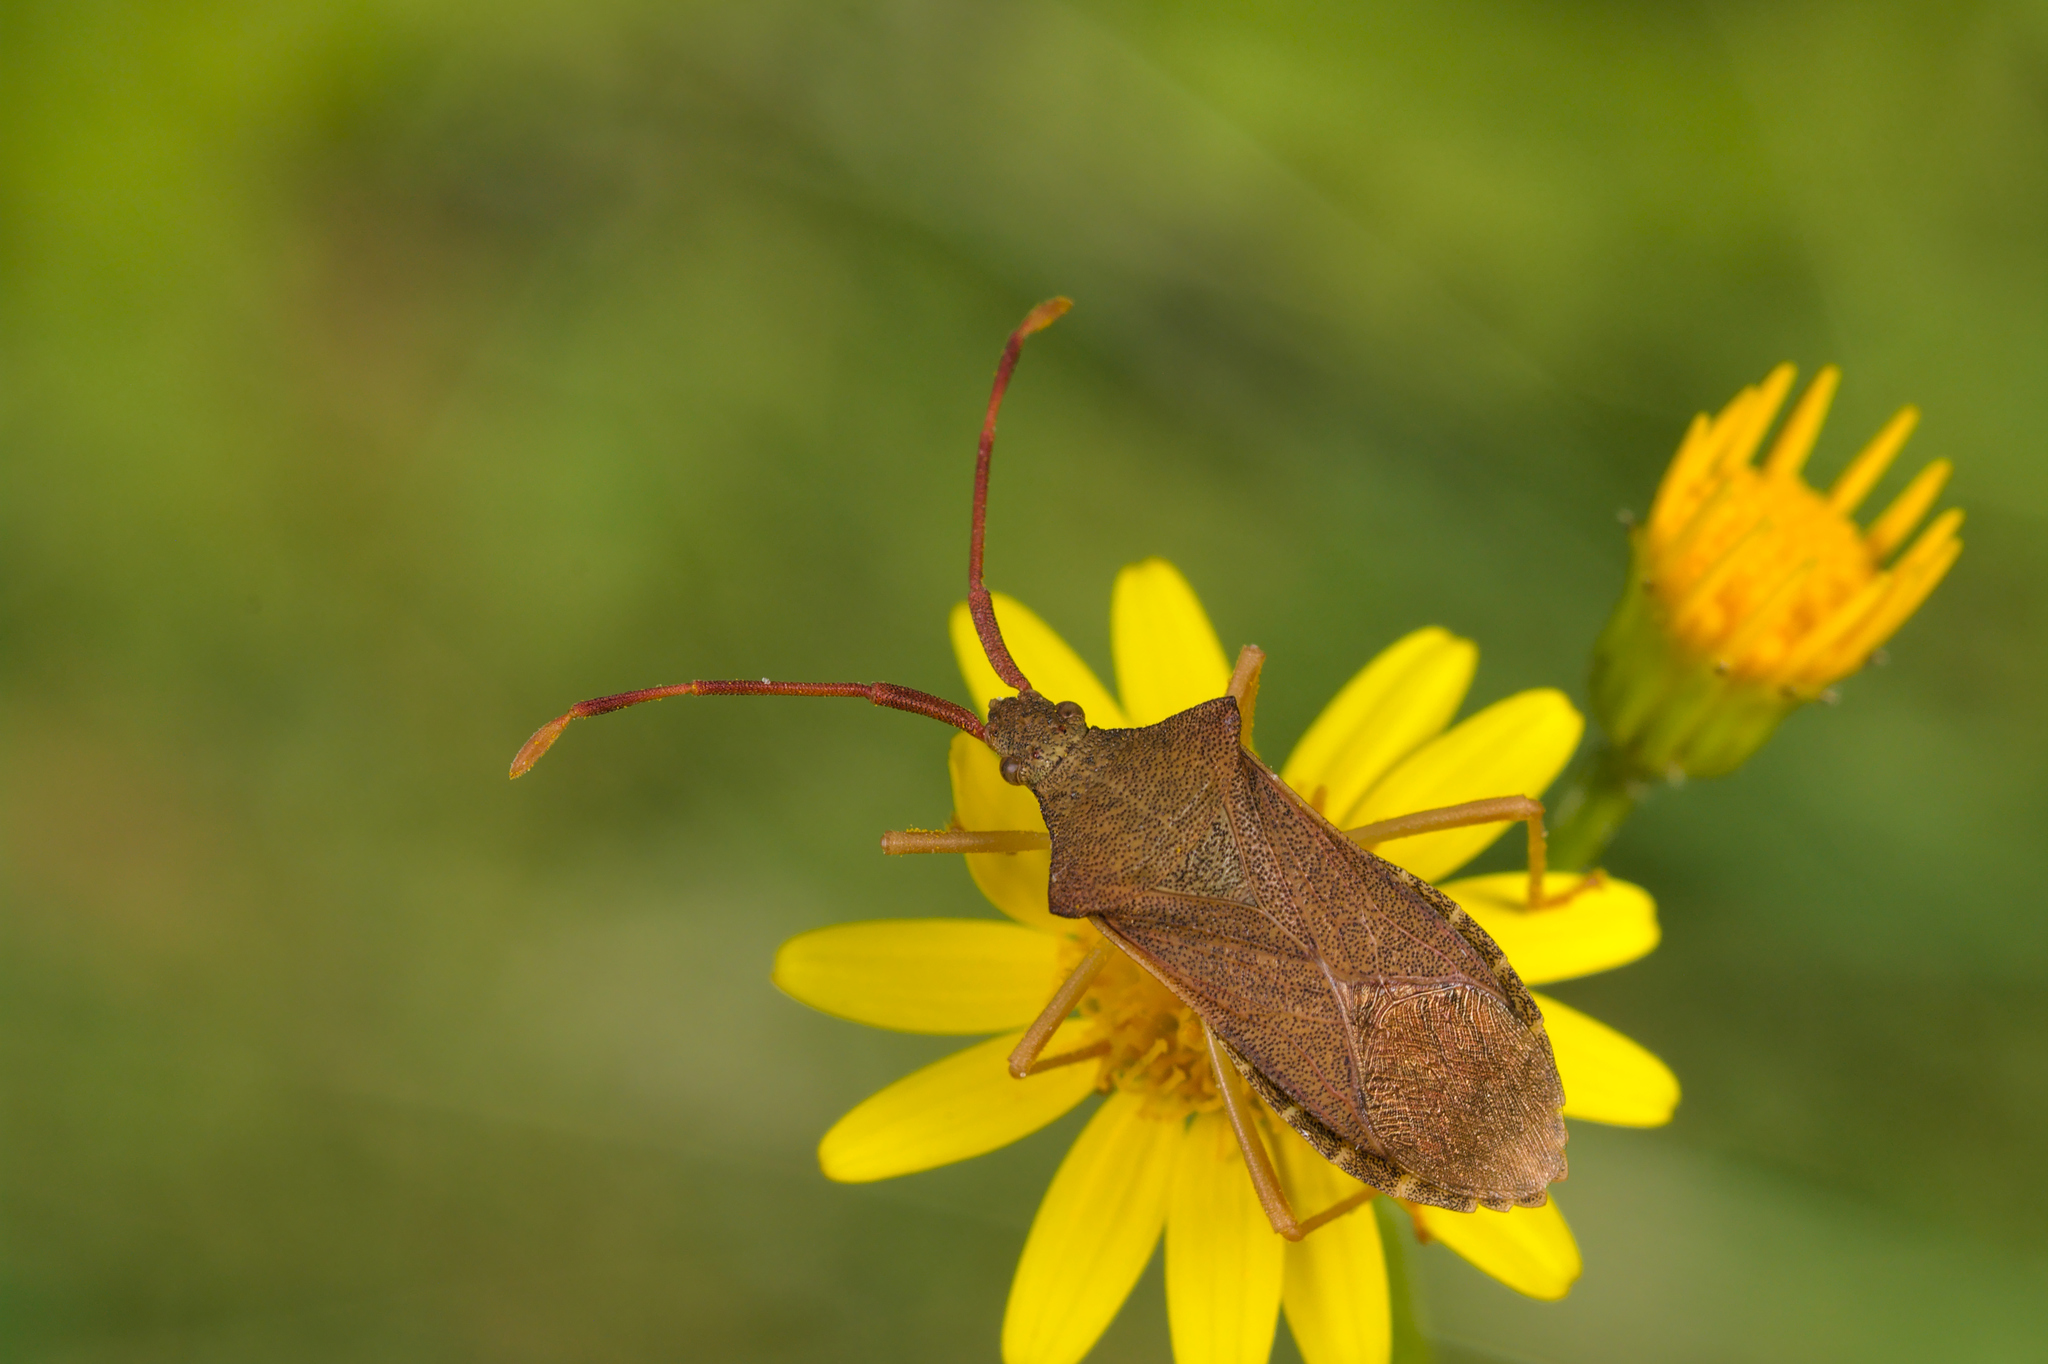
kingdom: Animalia
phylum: Arthropoda
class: Insecta
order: Hemiptera
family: Coreidae
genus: Gonocerus
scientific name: Gonocerus acuteangulatus
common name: Box bug
